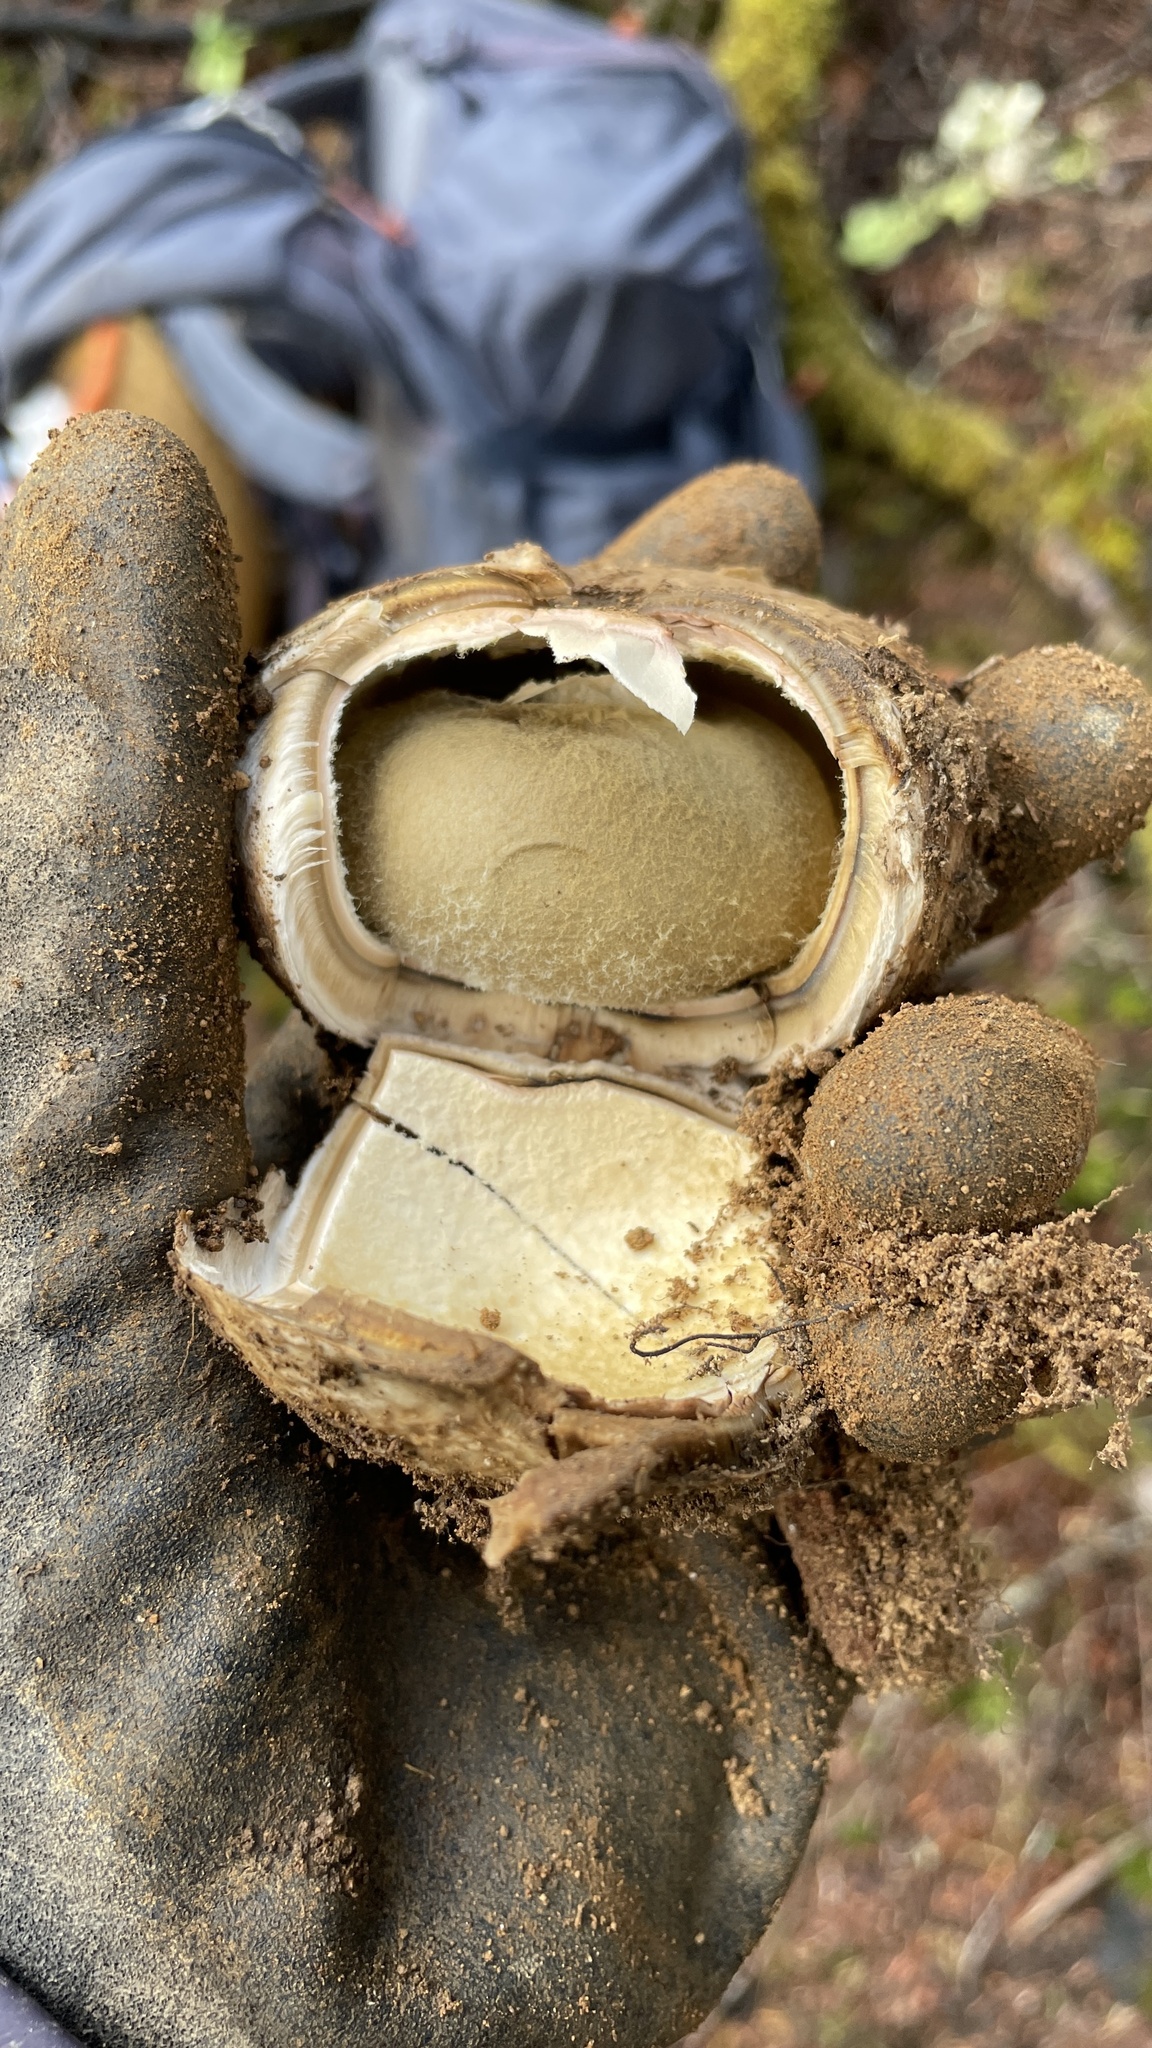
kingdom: Fungi
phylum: Basidiomycota
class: Agaricomycetes
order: Boletales
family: Diplocystidiaceae
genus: Astraeus
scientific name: Astraeus pteridis
